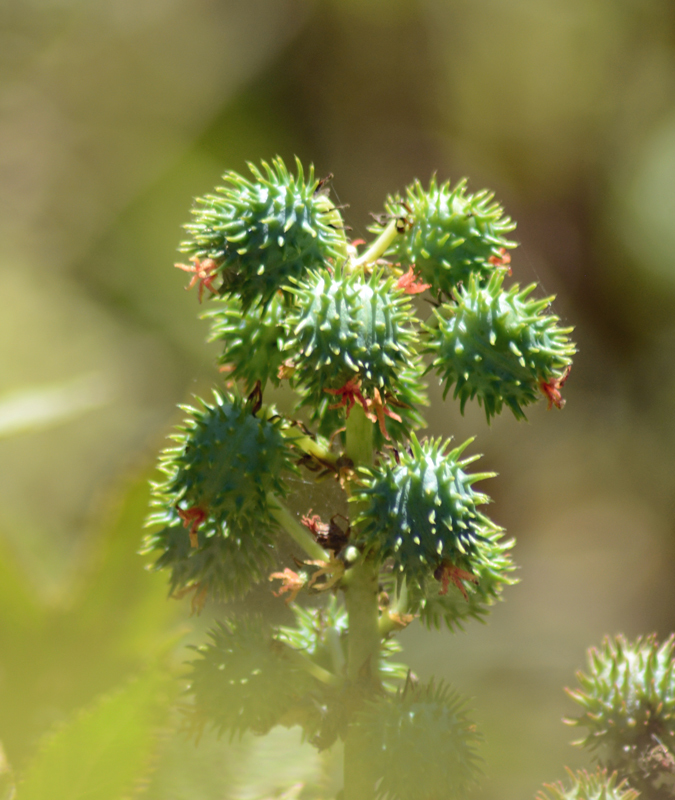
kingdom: Plantae
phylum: Tracheophyta
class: Magnoliopsida
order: Malpighiales
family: Euphorbiaceae
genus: Ricinus
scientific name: Ricinus communis
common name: Castor-oil-plant
